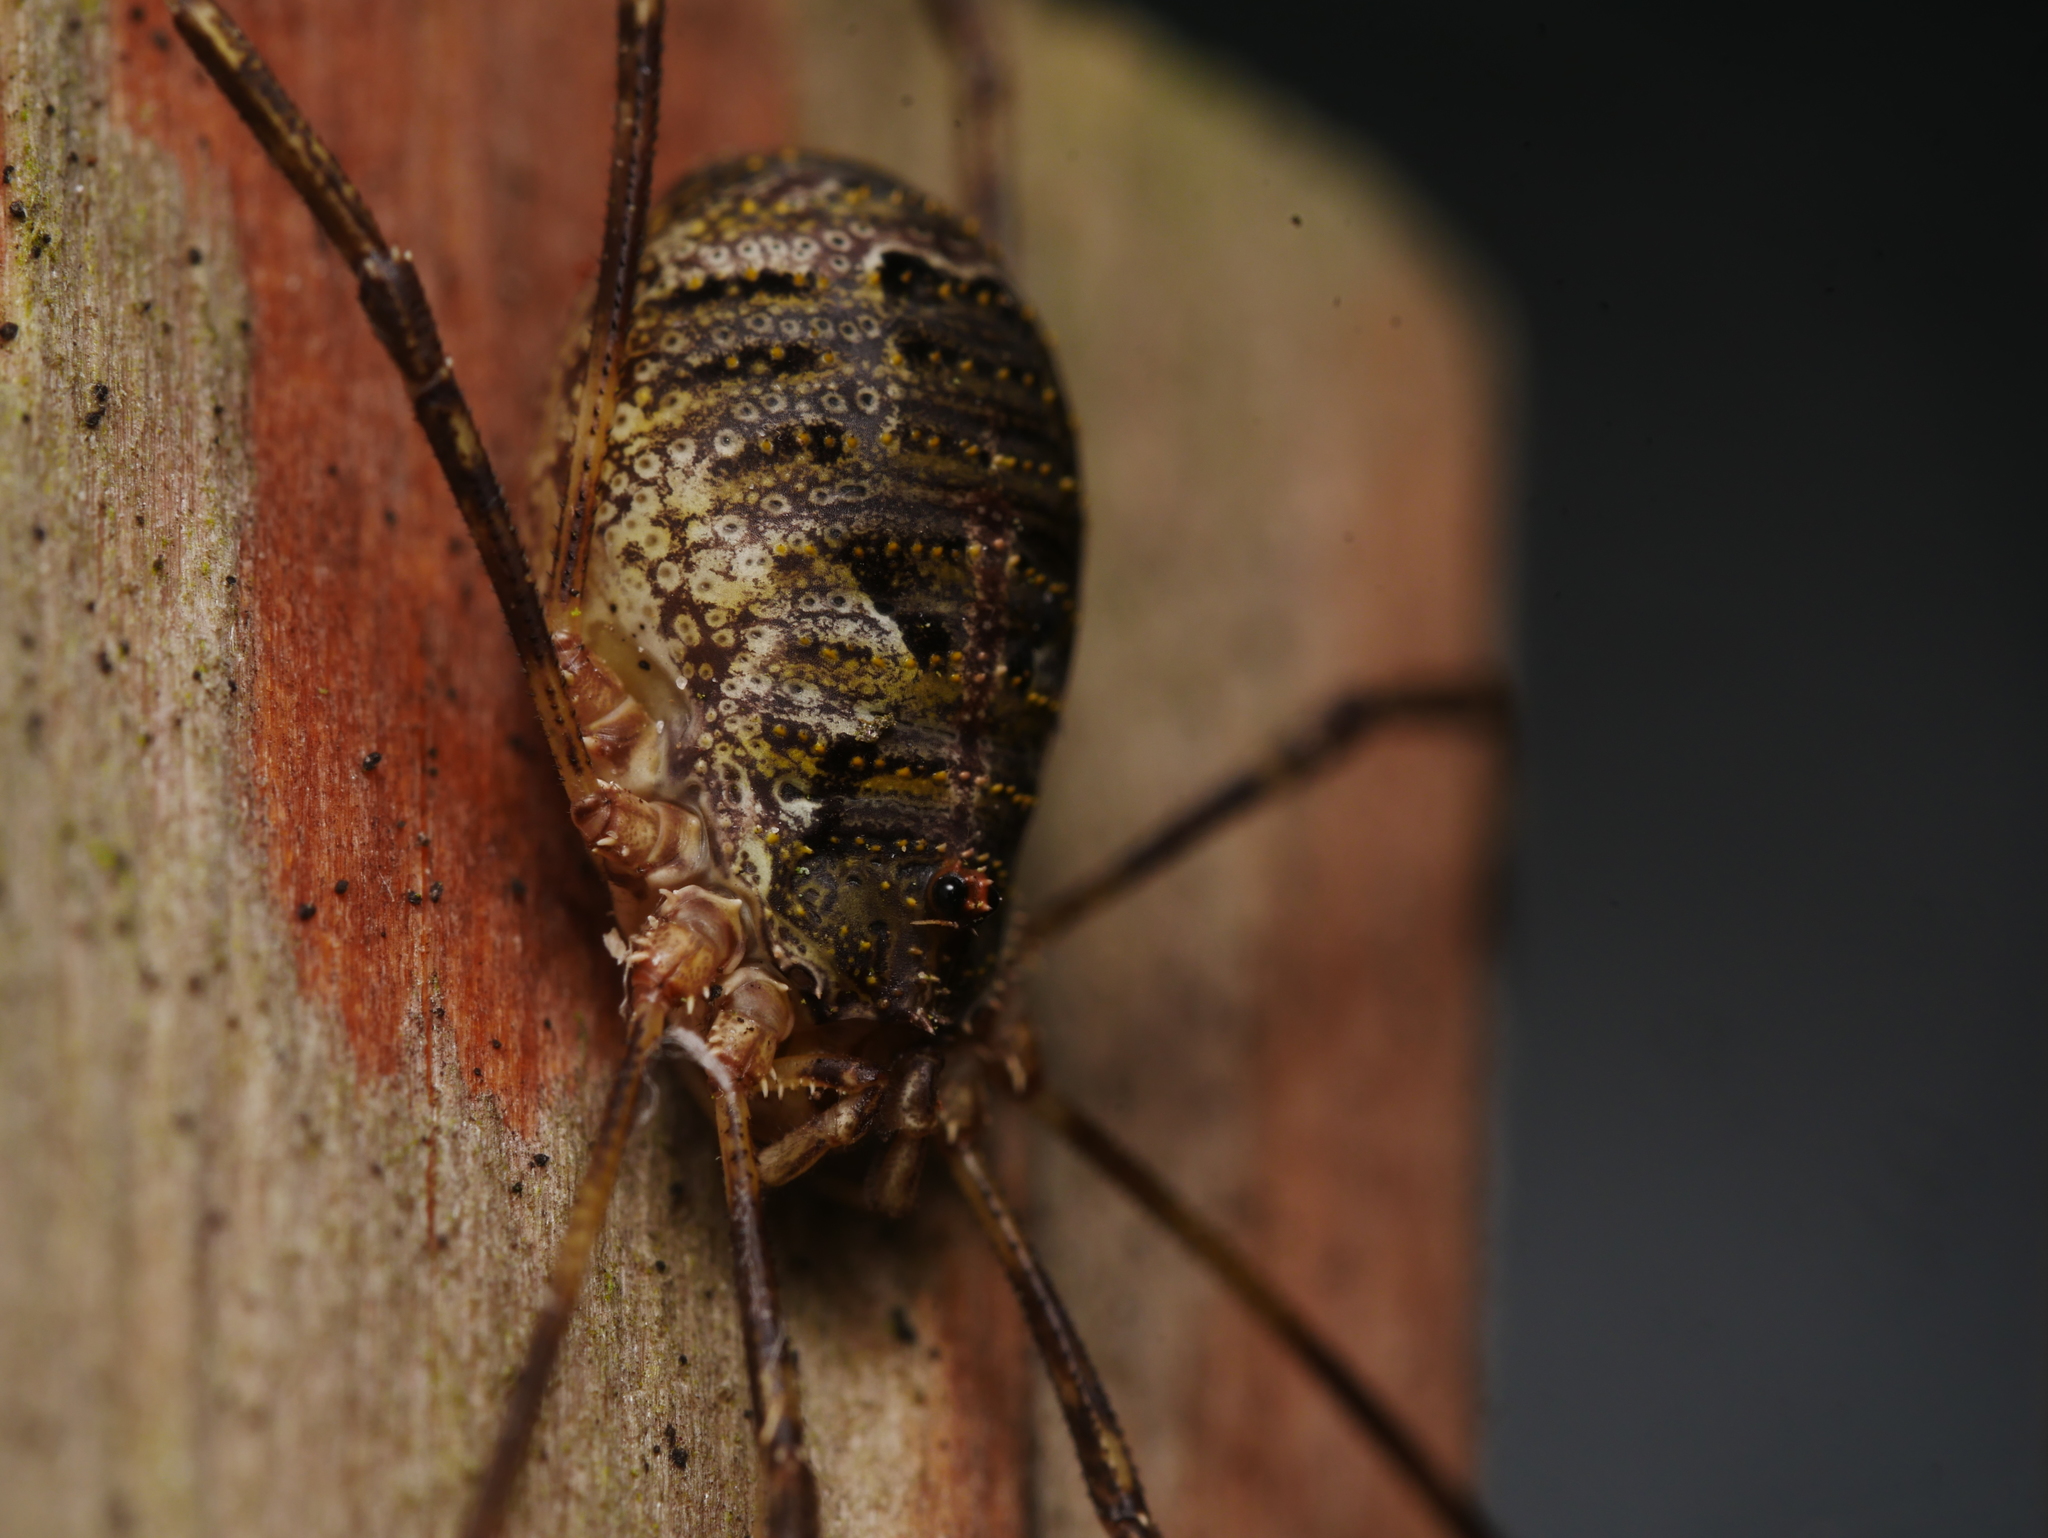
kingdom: Animalia
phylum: Arthropoda
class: Arachnida
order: Opiliones
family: Phalangiidae
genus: Lacinius
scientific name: Lacinius dentiger
